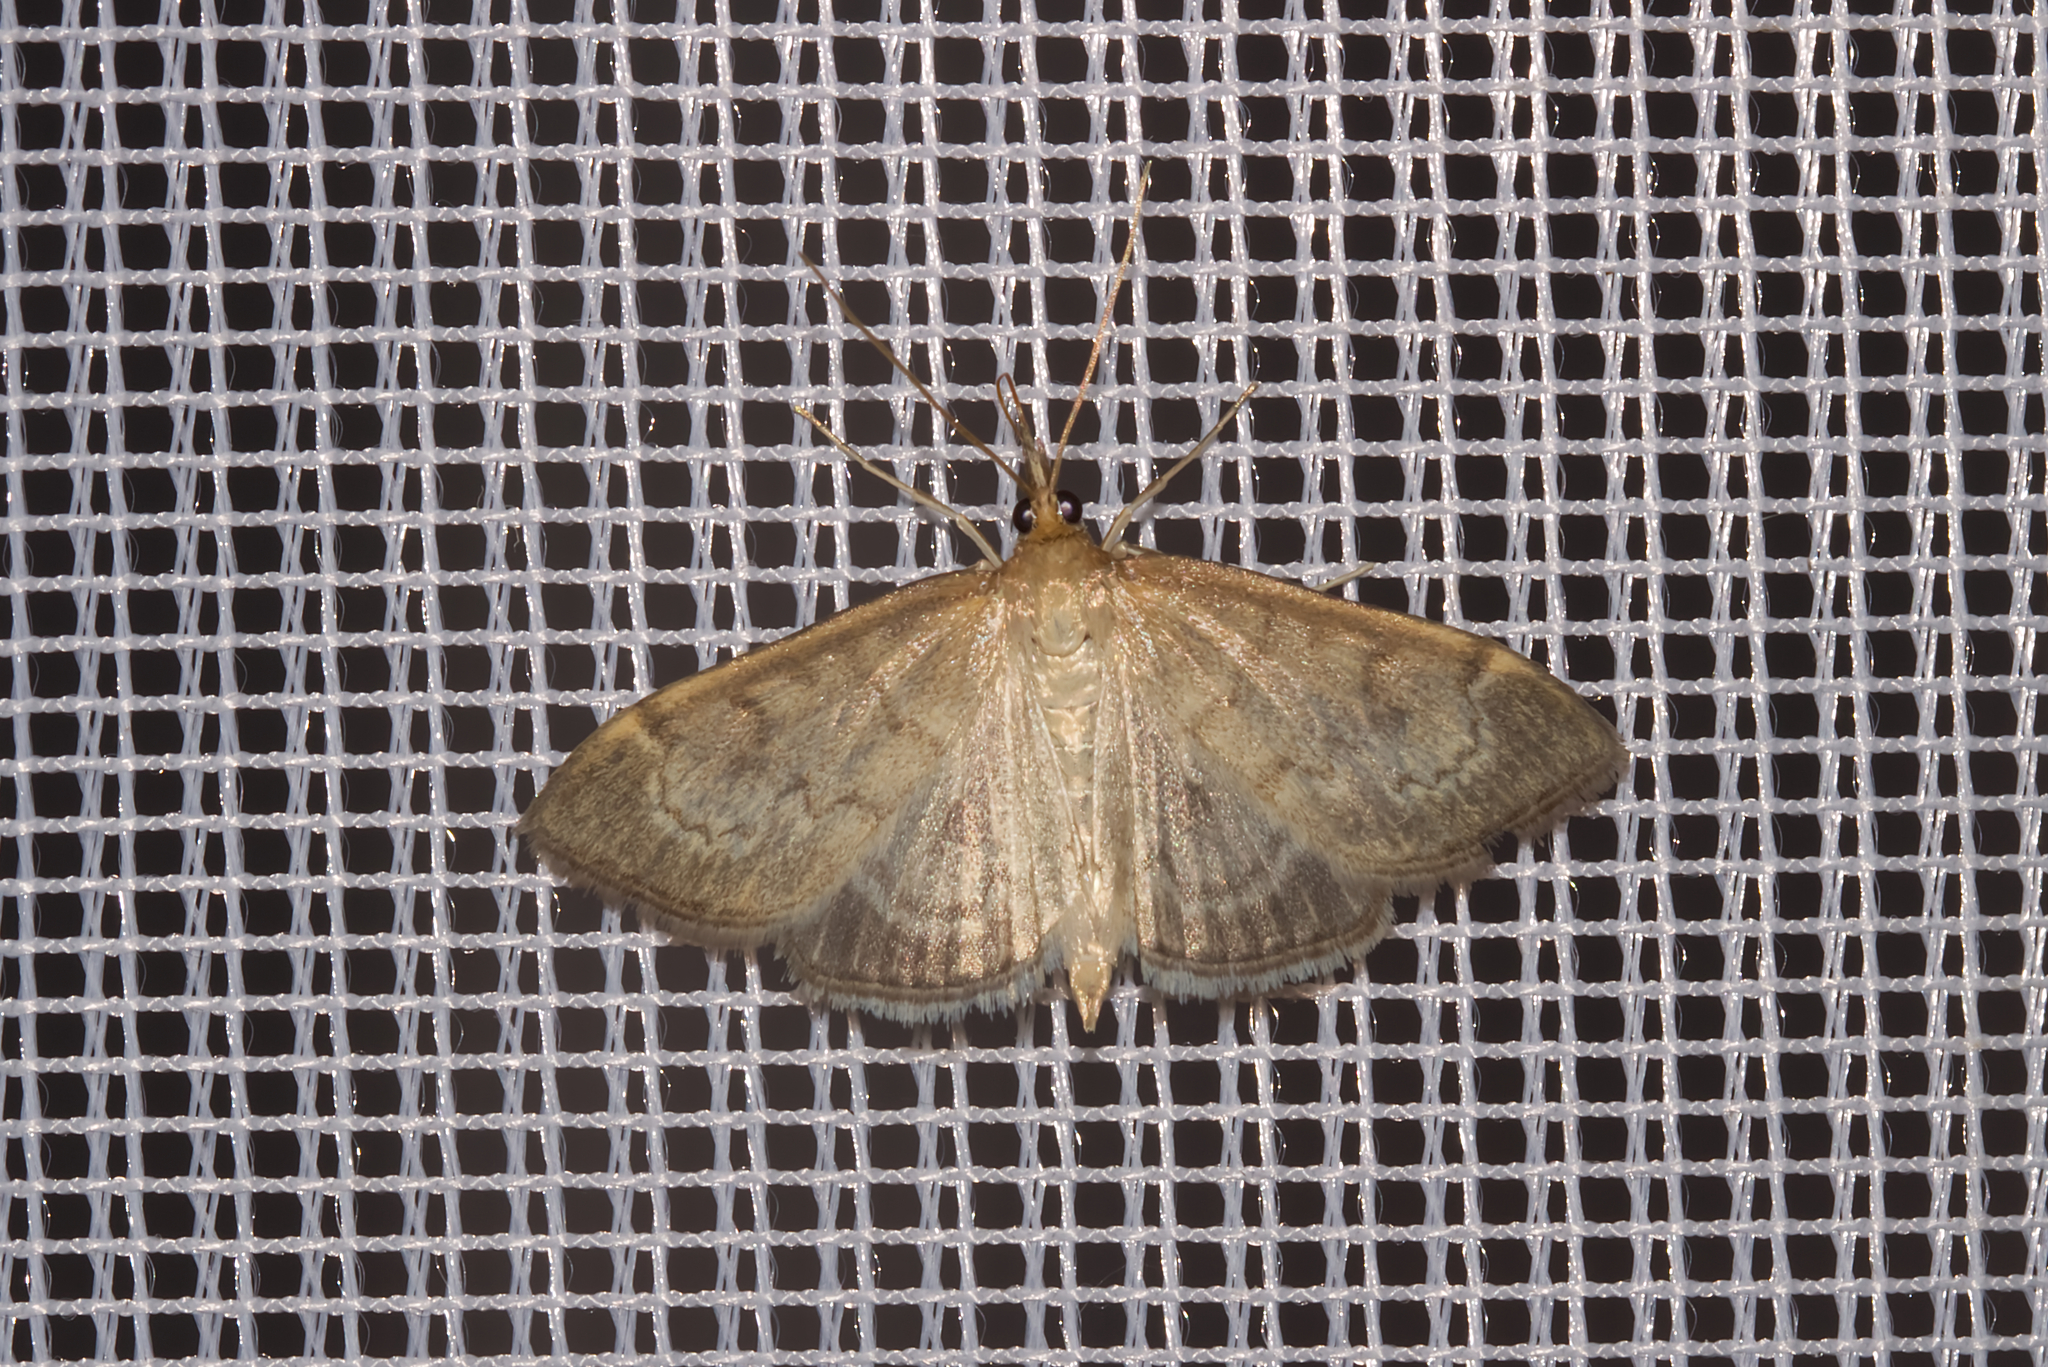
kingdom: Animalia
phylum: Arthropoda
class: Insecta
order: Lepidoptera
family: Crambidae
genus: Anania
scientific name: Anania fuscalis
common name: Cinerous pearl
